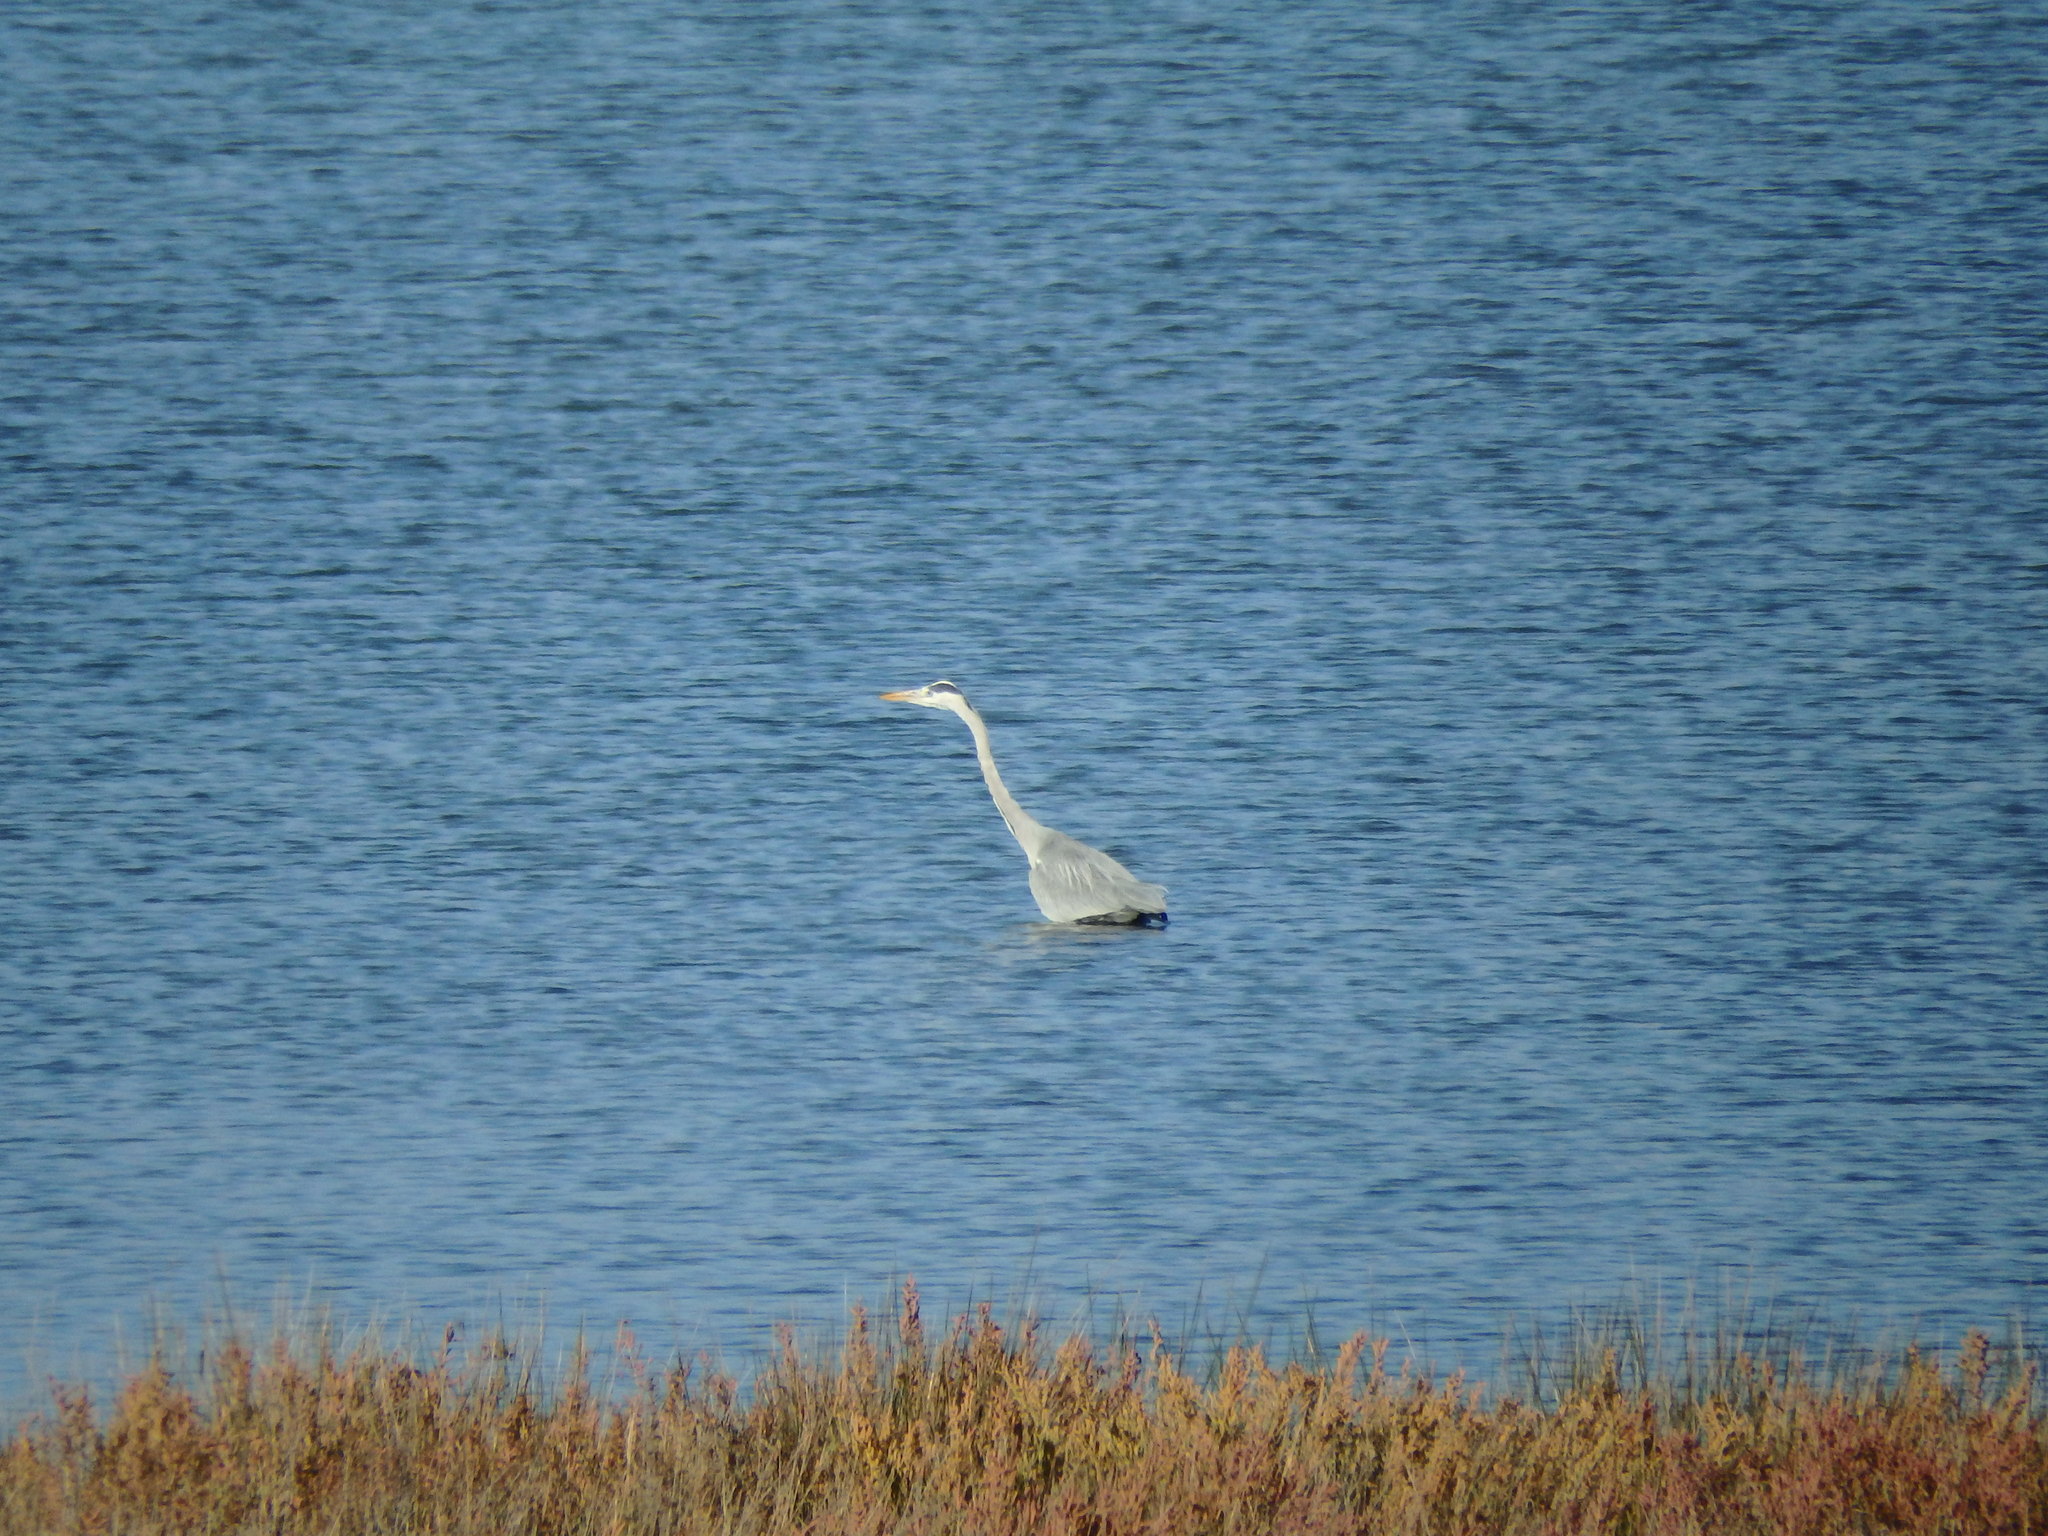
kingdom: Animalia
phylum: Chordata
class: Aves
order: Pelecaniformes
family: Ardeidae
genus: Ardea
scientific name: Ardea cinerea
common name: Grey heron
